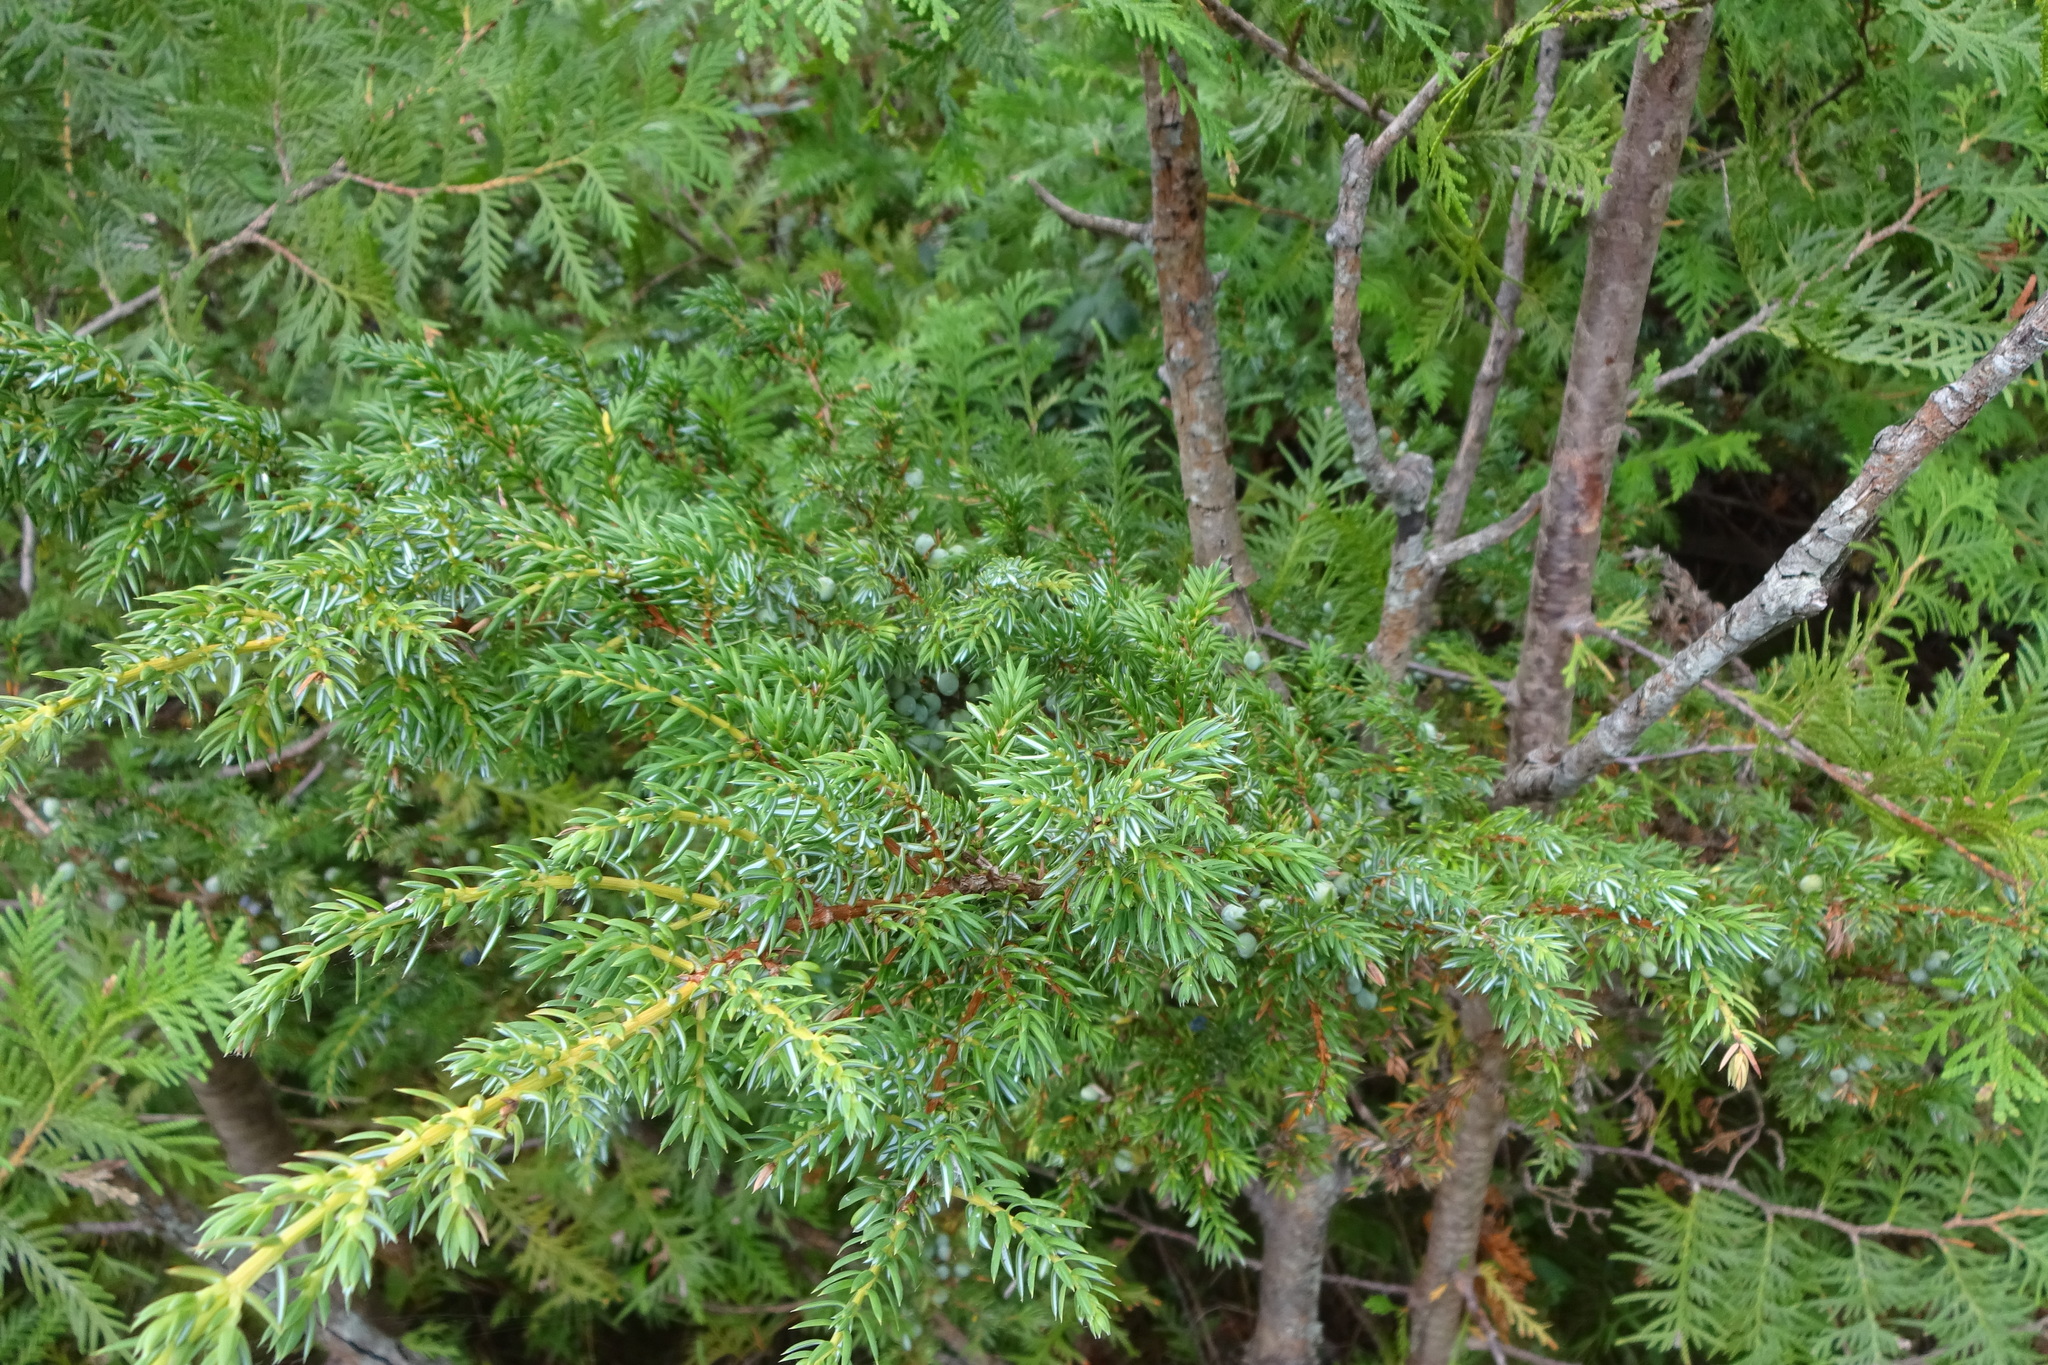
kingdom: Plantae
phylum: Tracheophyta
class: Pinopsida
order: Pinales
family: Cupressaceae
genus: Juniperus
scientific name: Juniperus communis
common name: Common juniper
